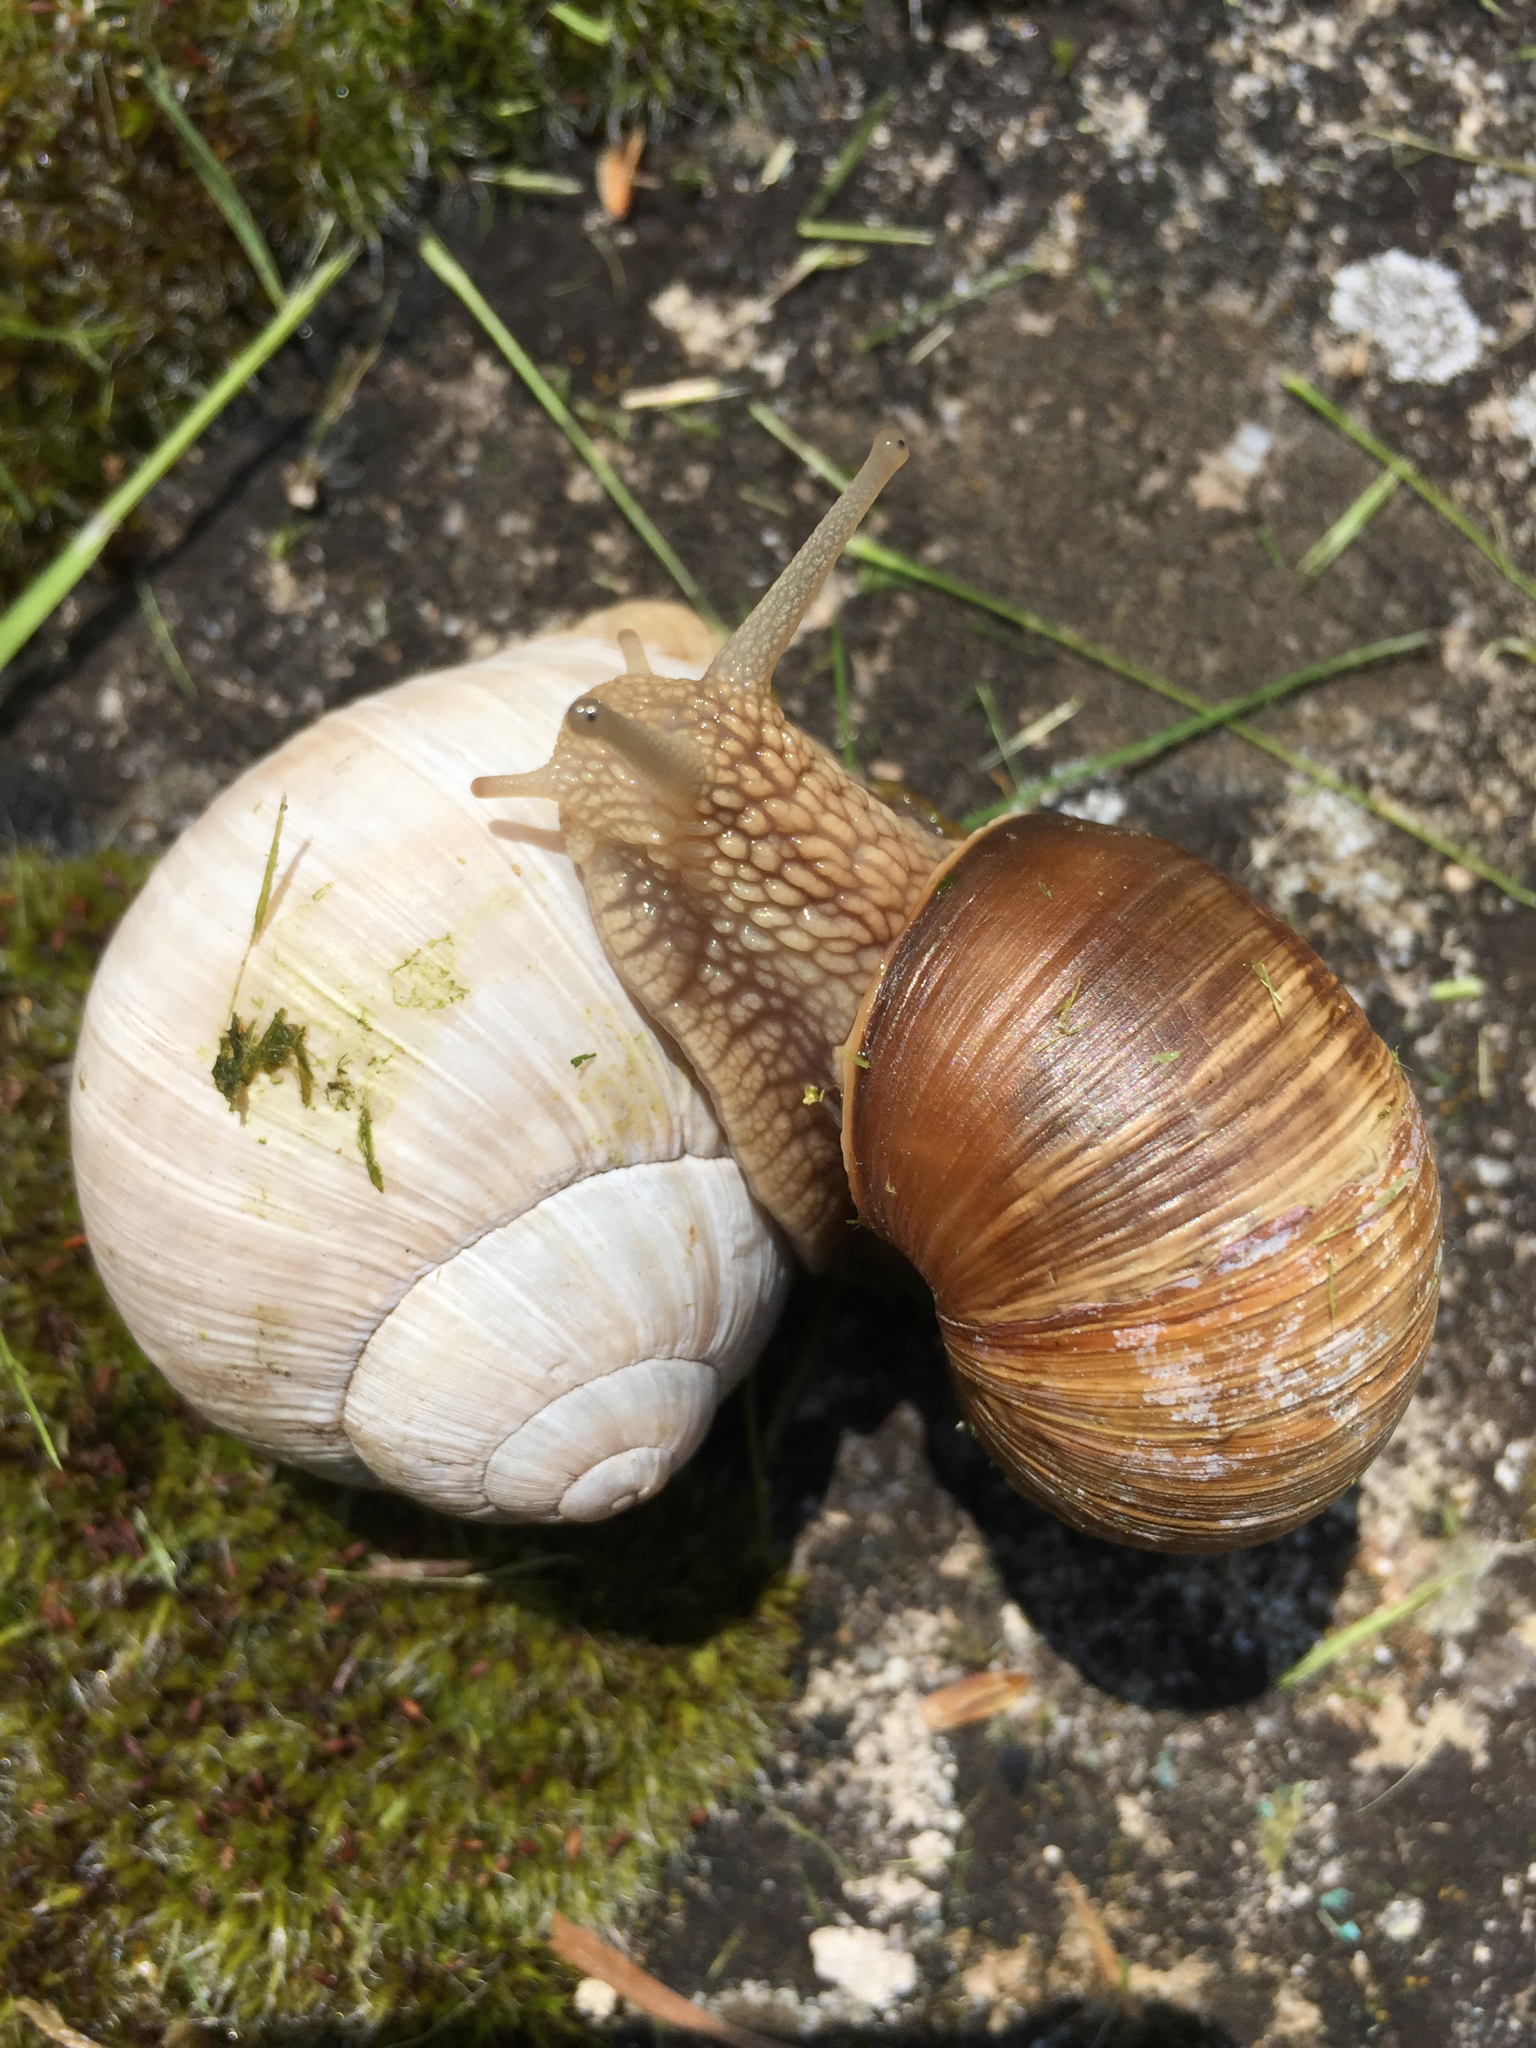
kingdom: Animalia
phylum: Mollusca
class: Gastropoda
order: Stylommatophora
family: Helicidae
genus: Helix
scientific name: Helix pomatia
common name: Roman snail
